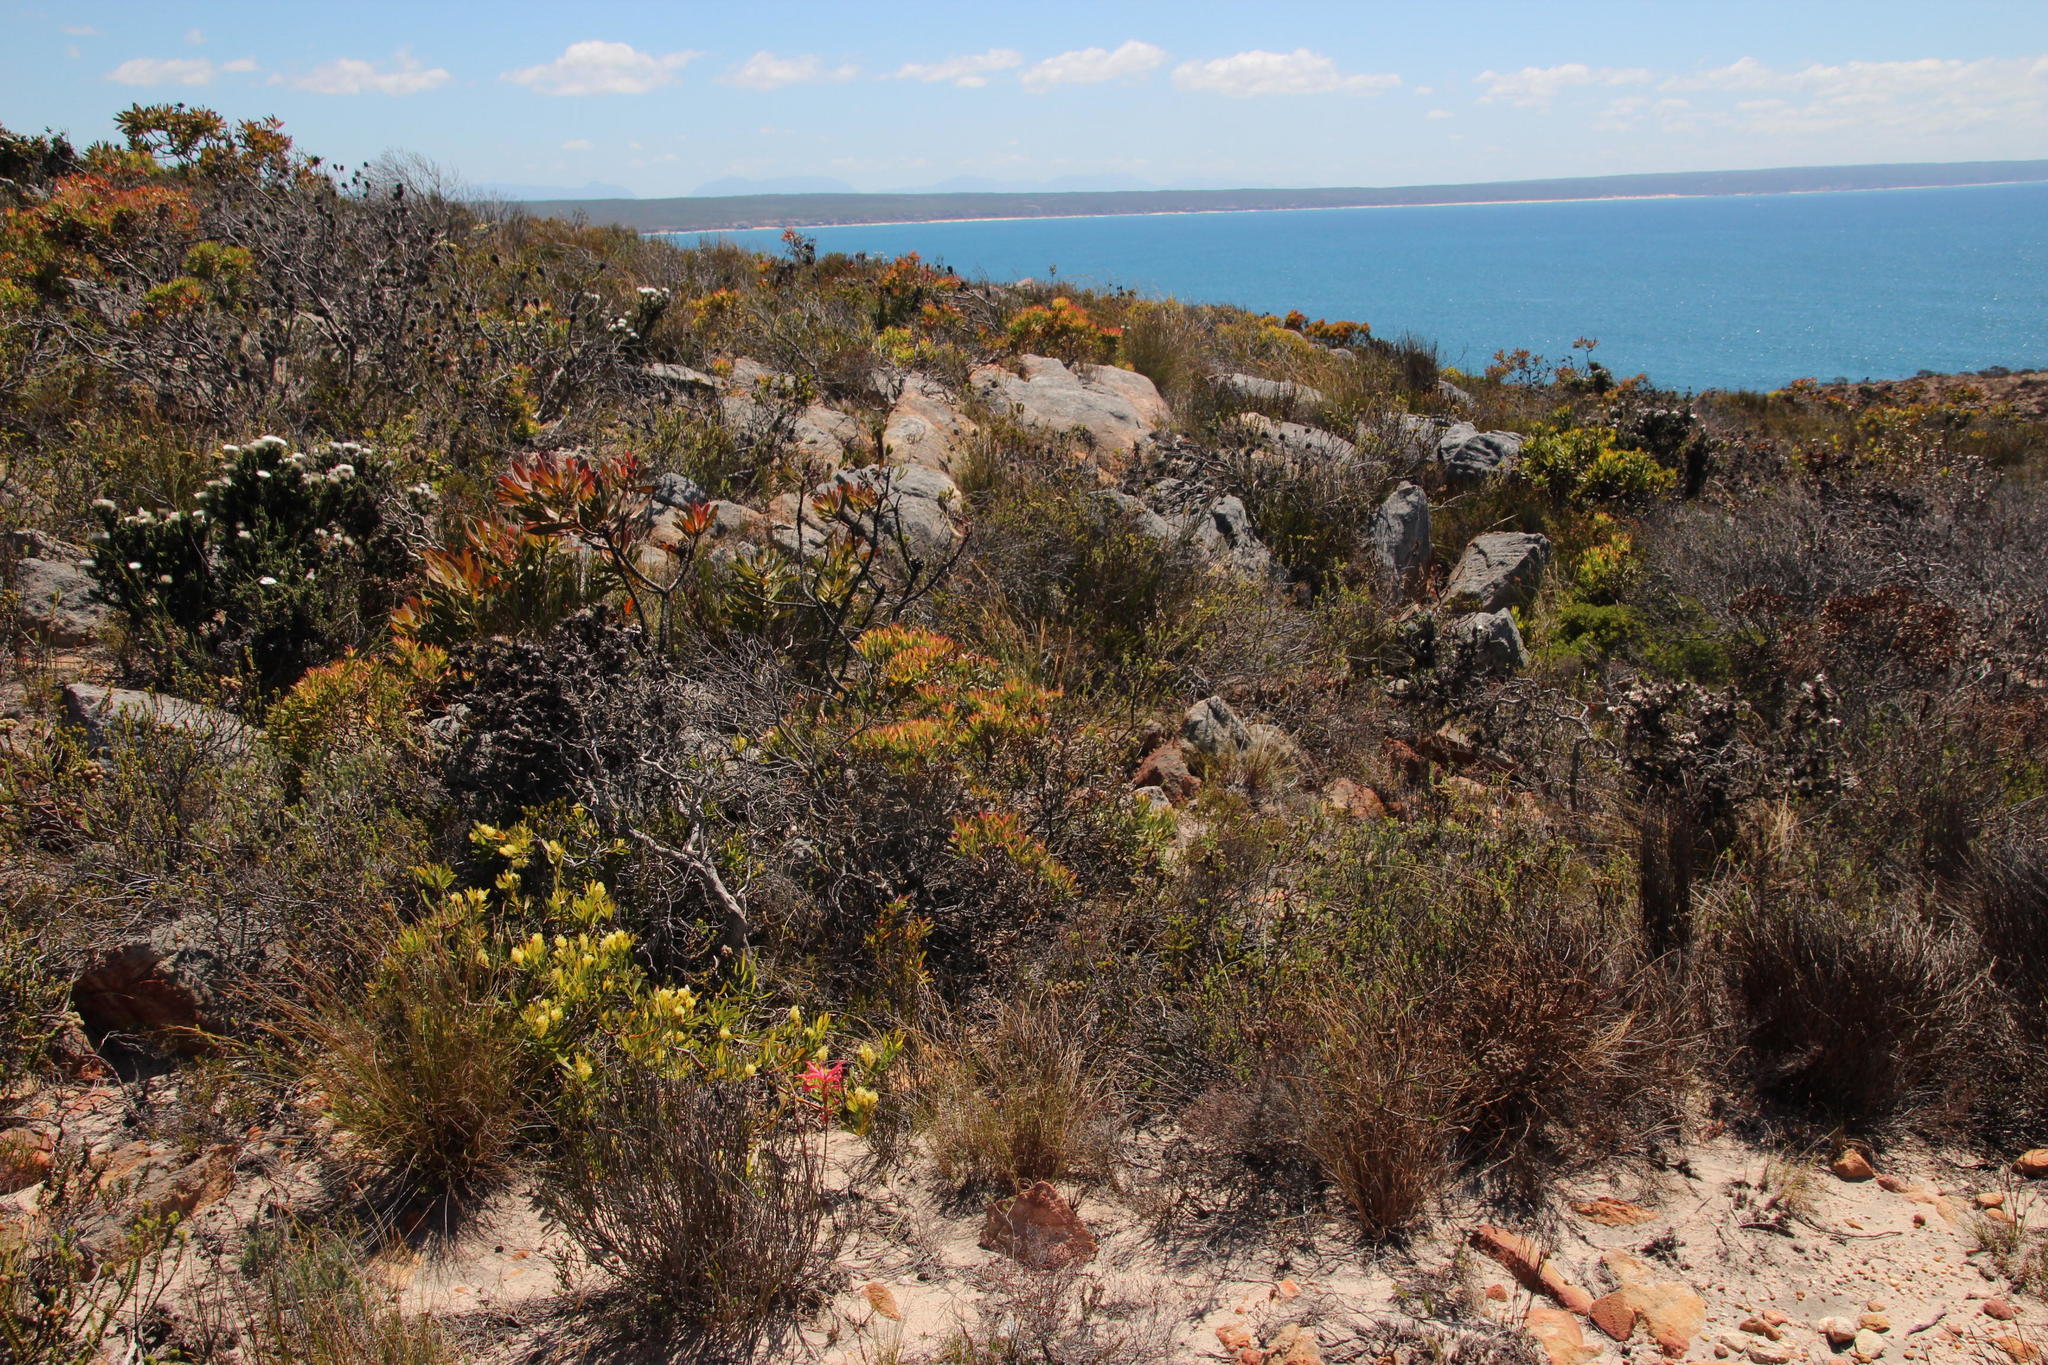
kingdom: Plantae
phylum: Tracheophyta
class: Magnoliopsida
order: Proteales
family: Proteaceae
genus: Leucadendron
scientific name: Leucadendron salignum
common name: Common sunshine conebush
